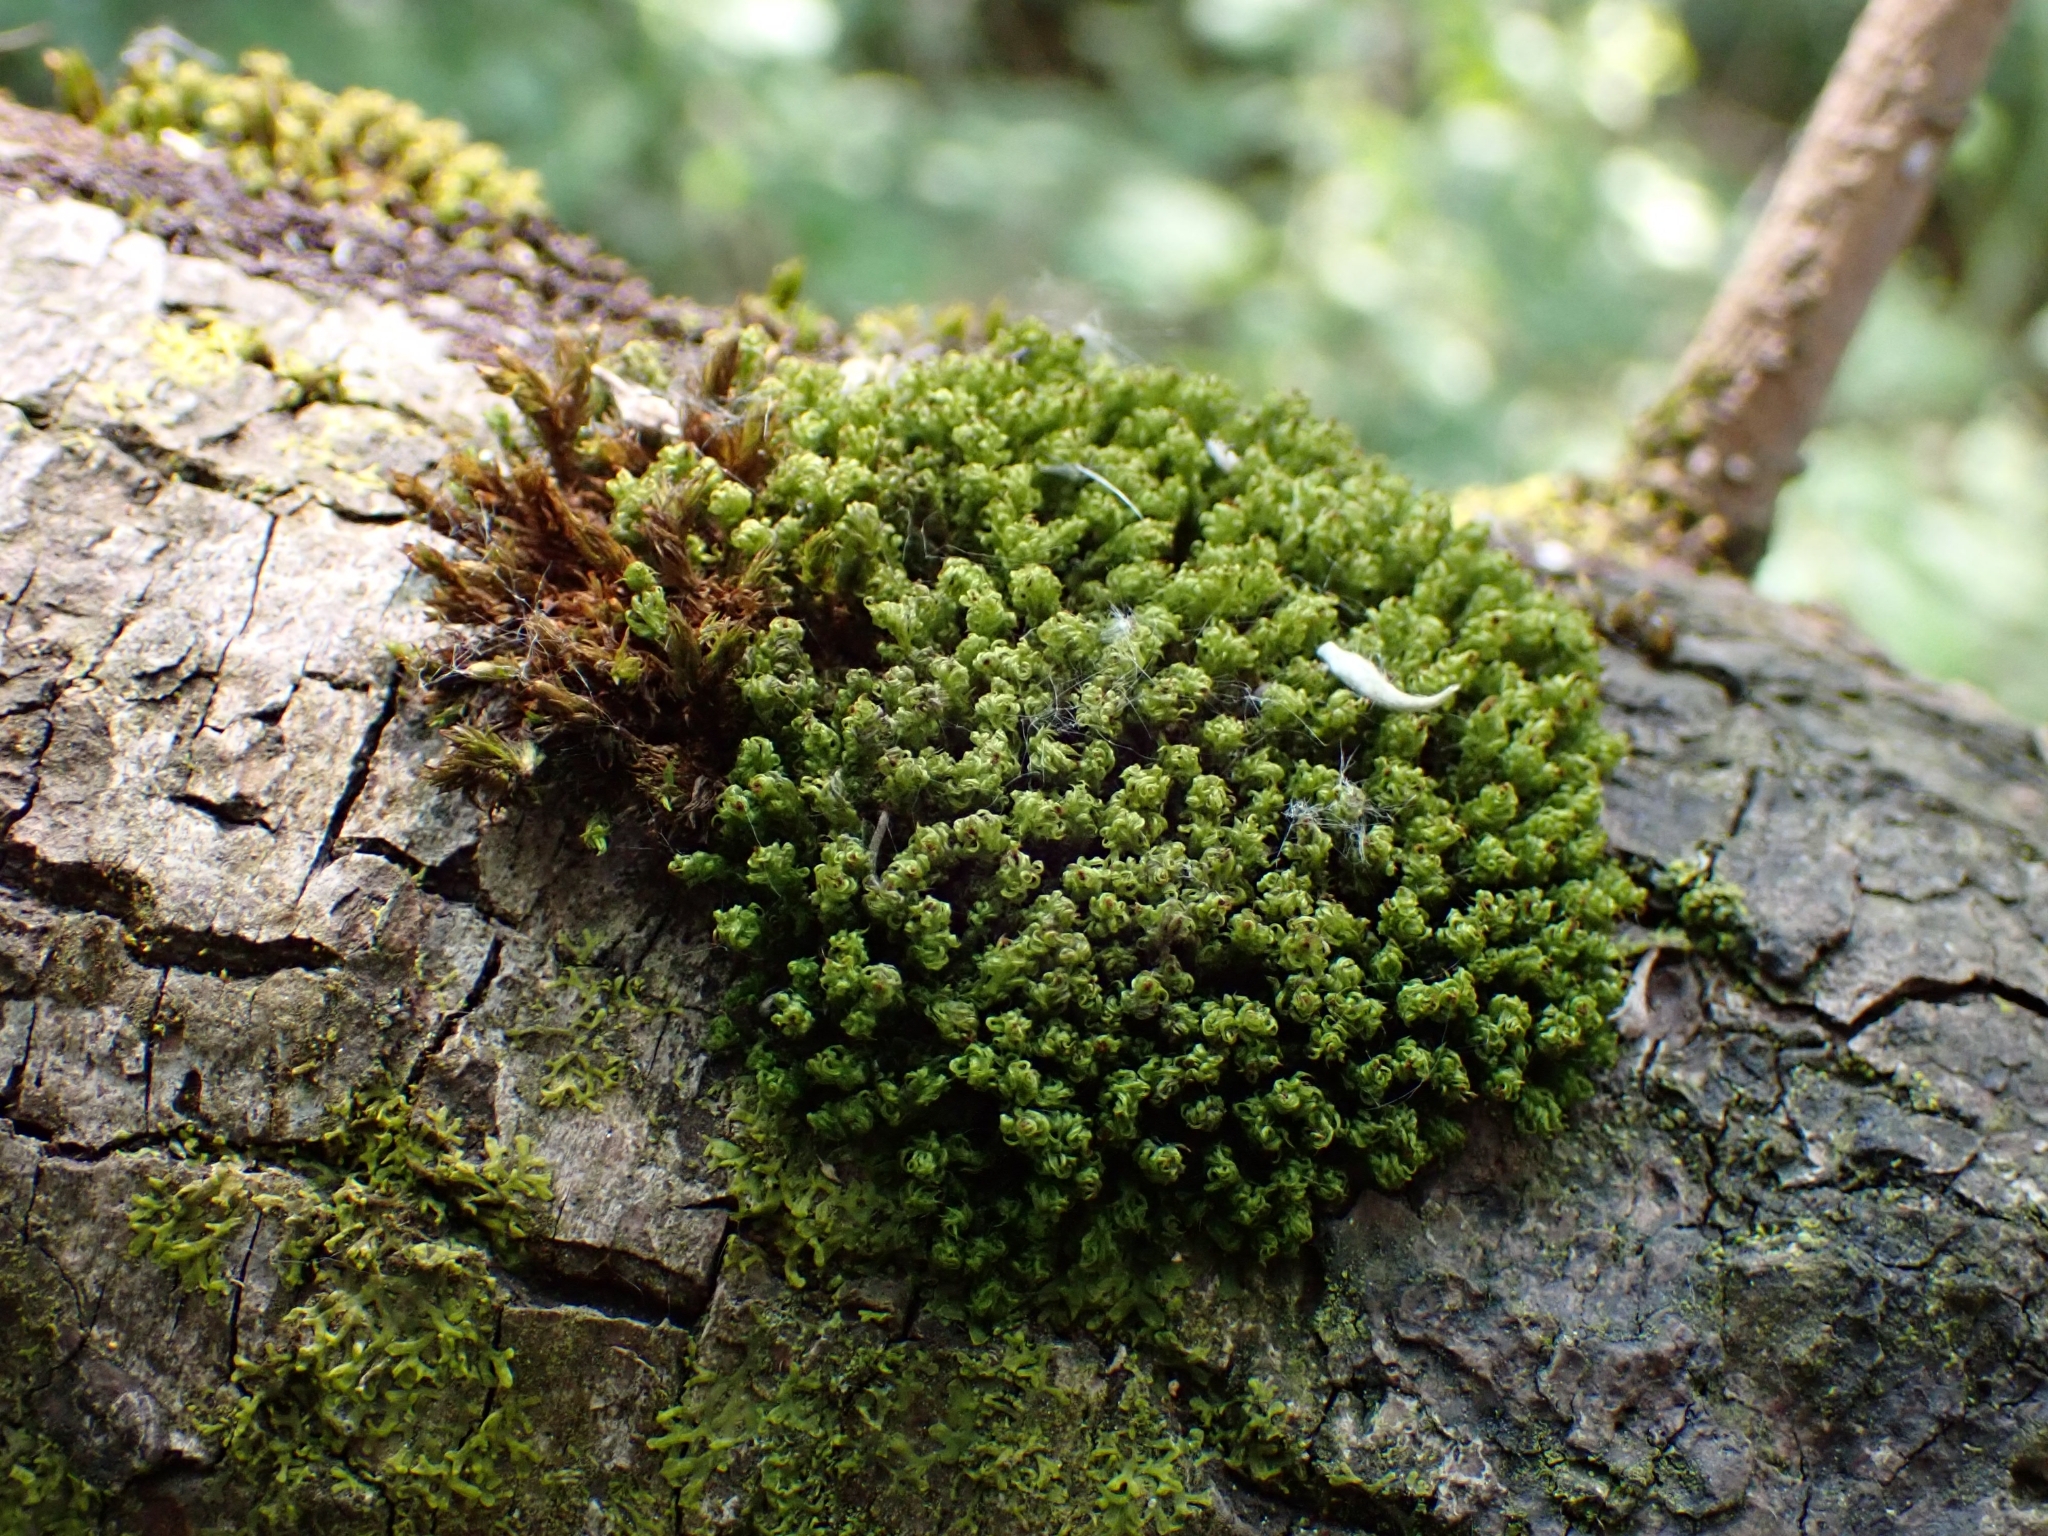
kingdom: Plantae
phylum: Bryophyta
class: Bryopsida
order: Orthotrichales
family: Orthotrichaceae
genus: Plenogemma
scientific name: Plenogemma phyllantha
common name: Frizzled pincushion
